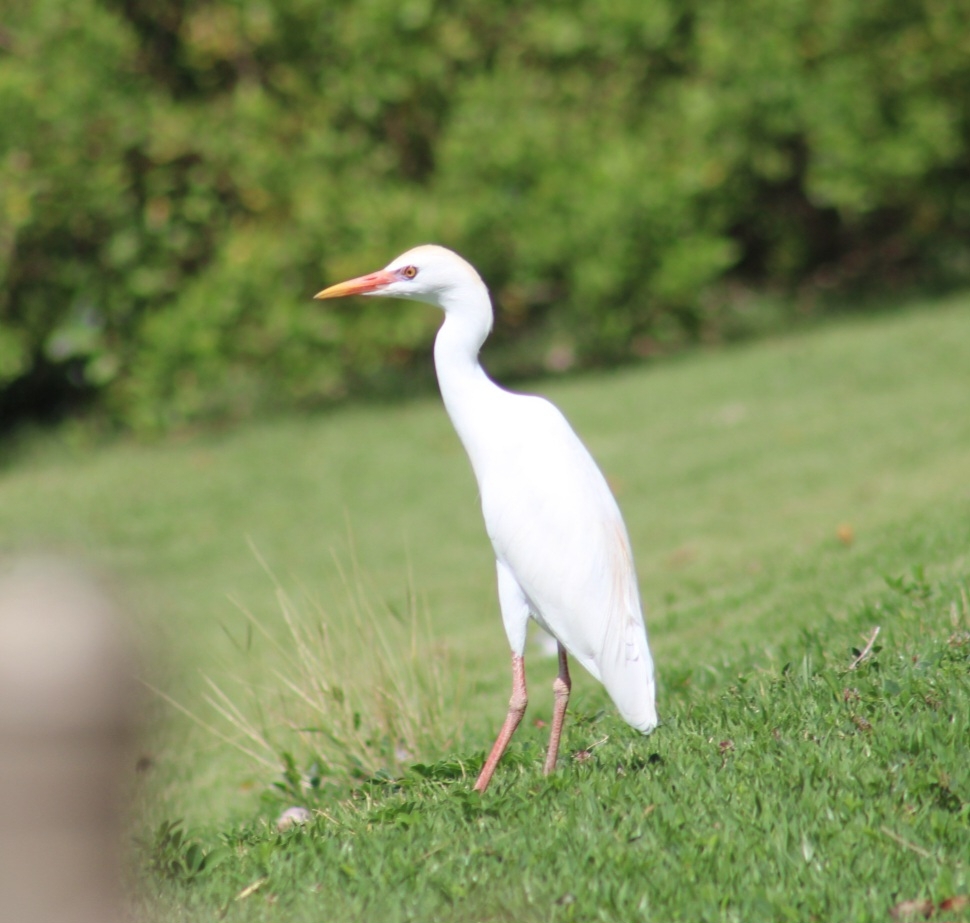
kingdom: Animalia
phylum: Chordata
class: Aves
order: Pelecaniformes
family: Ardeidae
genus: Bubulcus
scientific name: Bubulcus ibis
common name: Cattle egret
